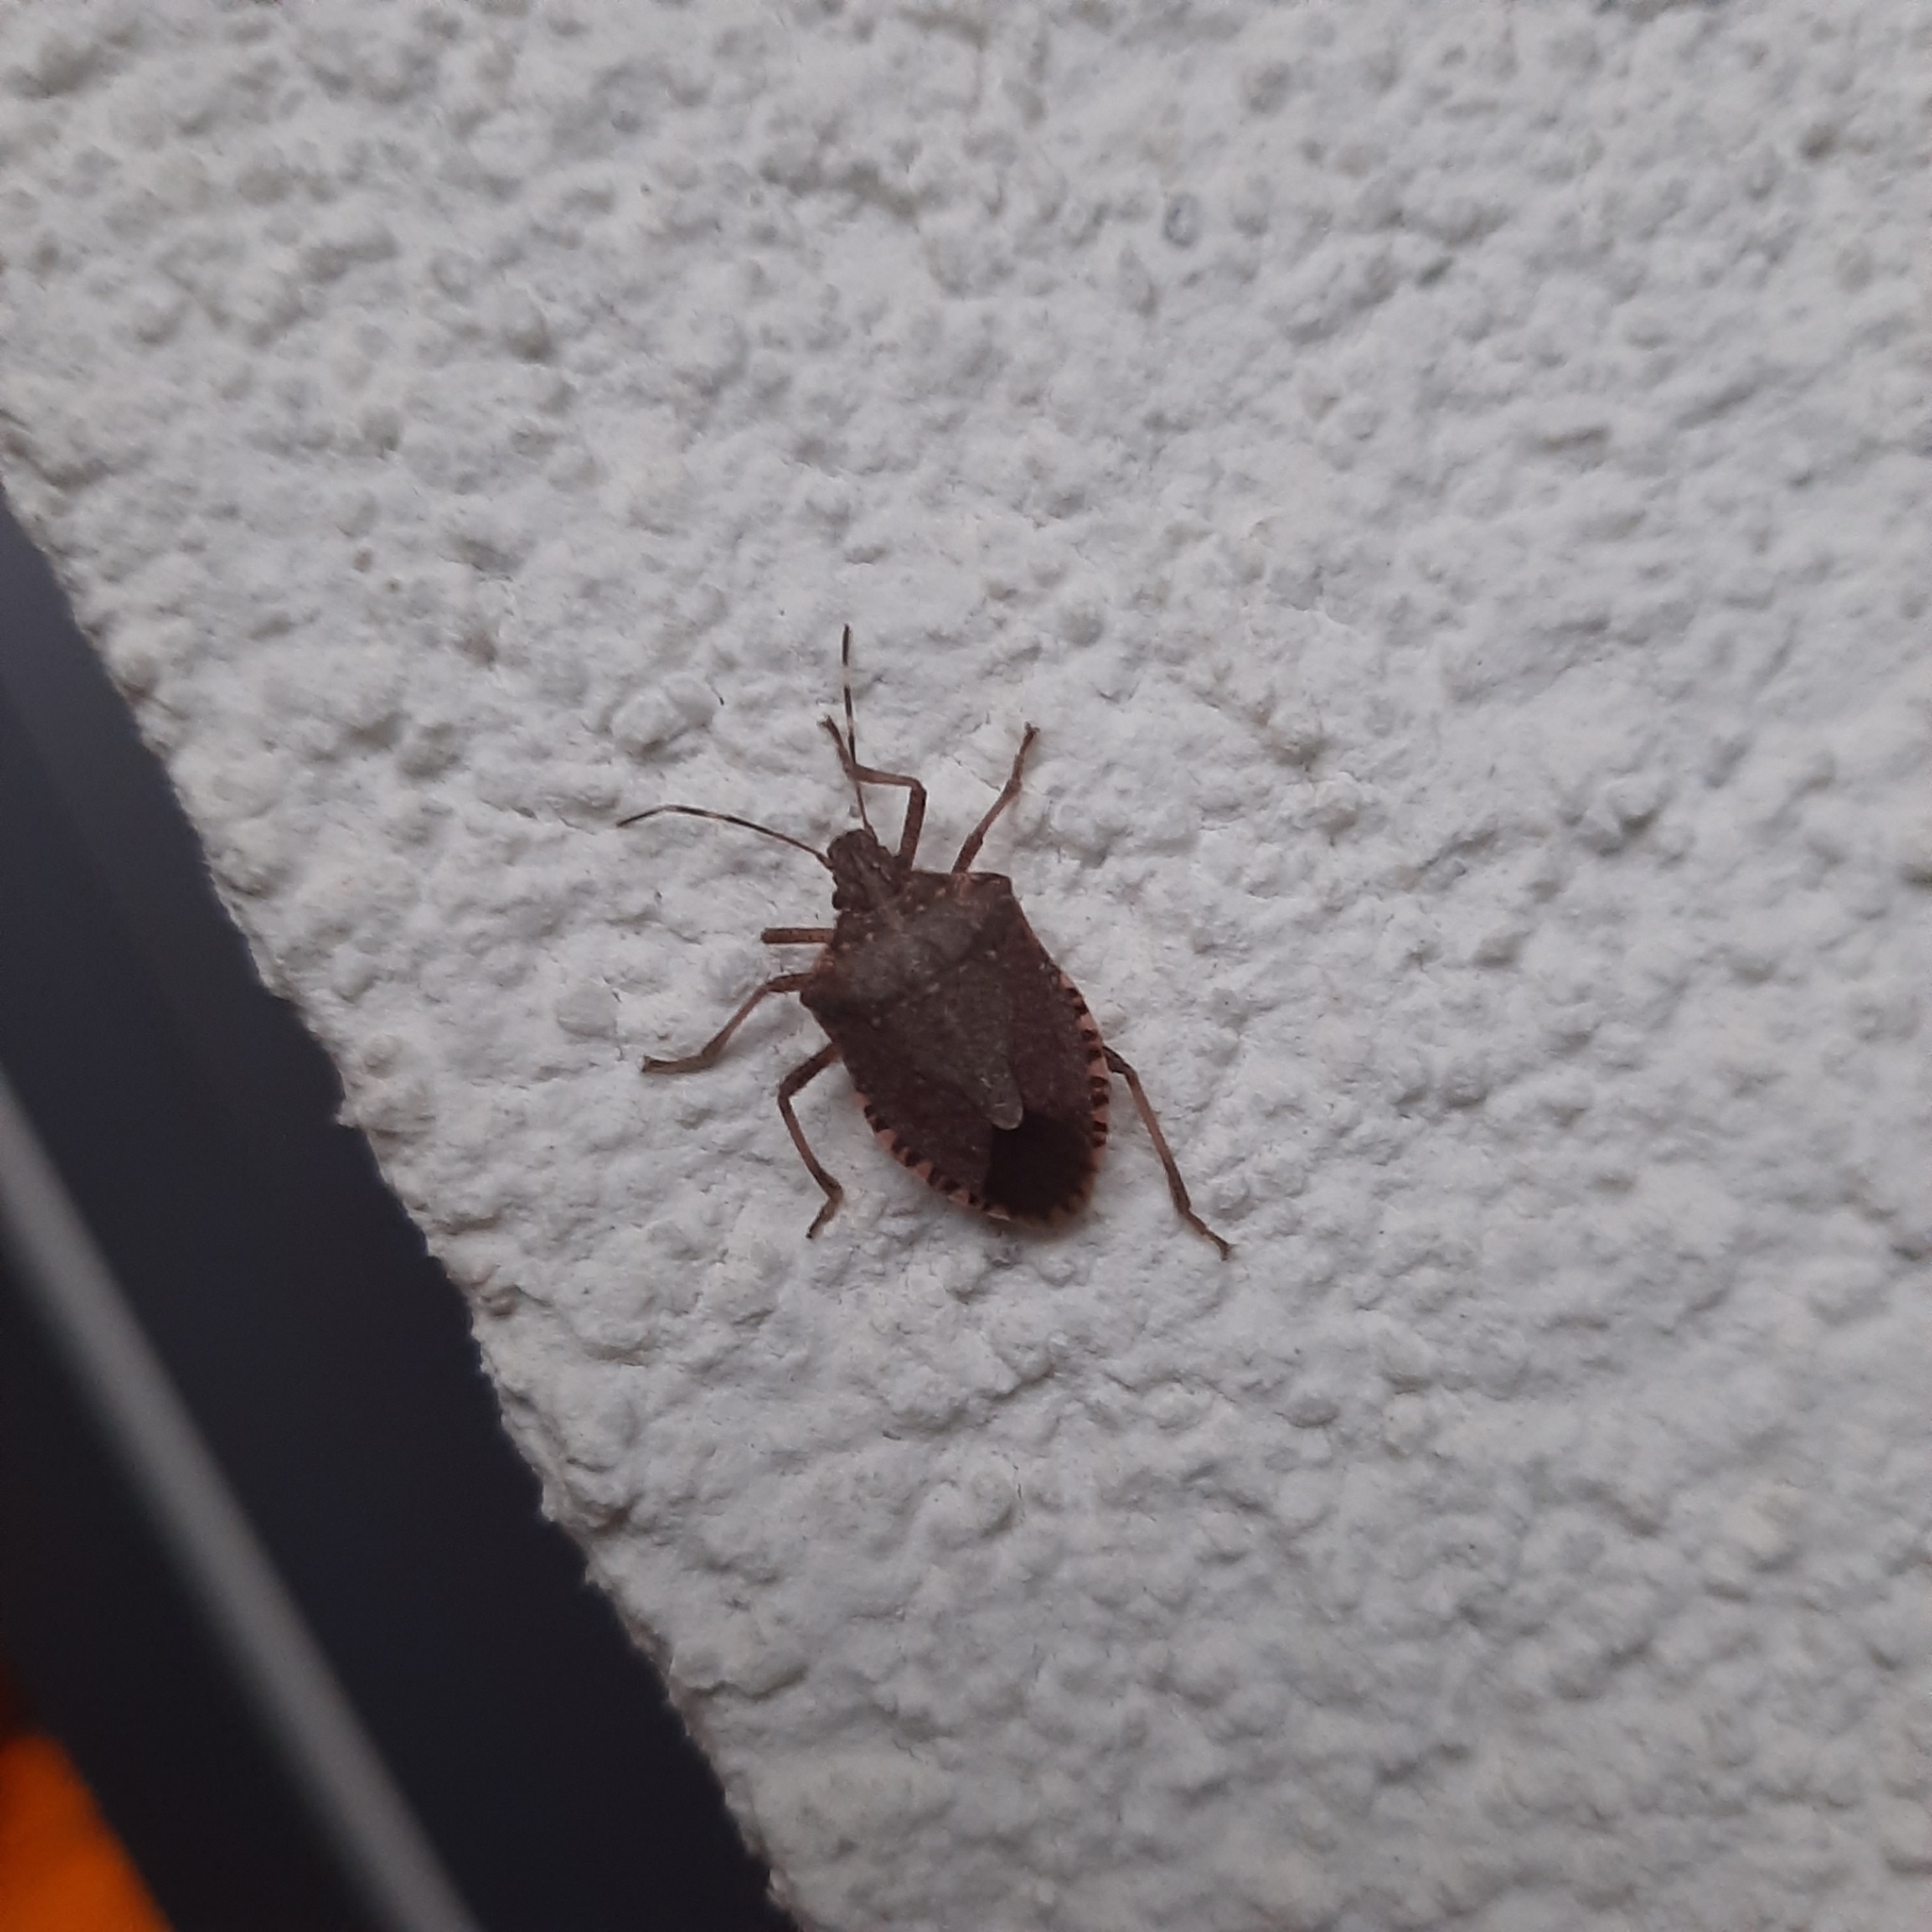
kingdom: Animalia
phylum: Arthropoda
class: Insecta
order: Hemiptera
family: Pentatomidae
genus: Halyomorpha
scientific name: Halyomorpha halys
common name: Brown marmorated stink bug
